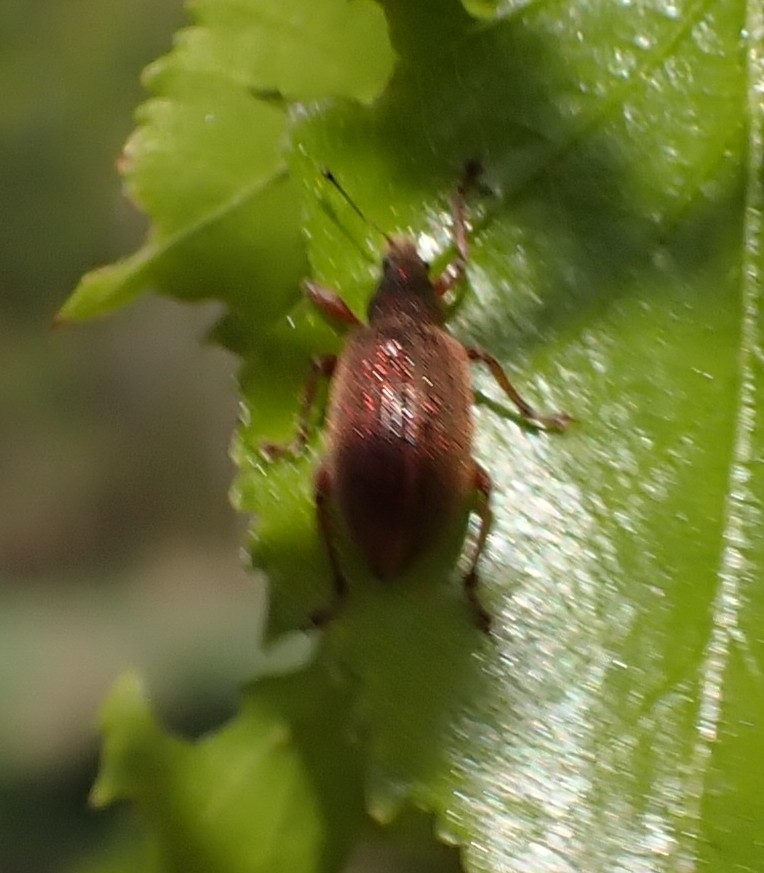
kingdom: Animalia
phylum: Arthropoda
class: Insecta
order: Coleoptera
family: Curculionidae
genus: Polydrusus
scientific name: Polydrusus mollis
